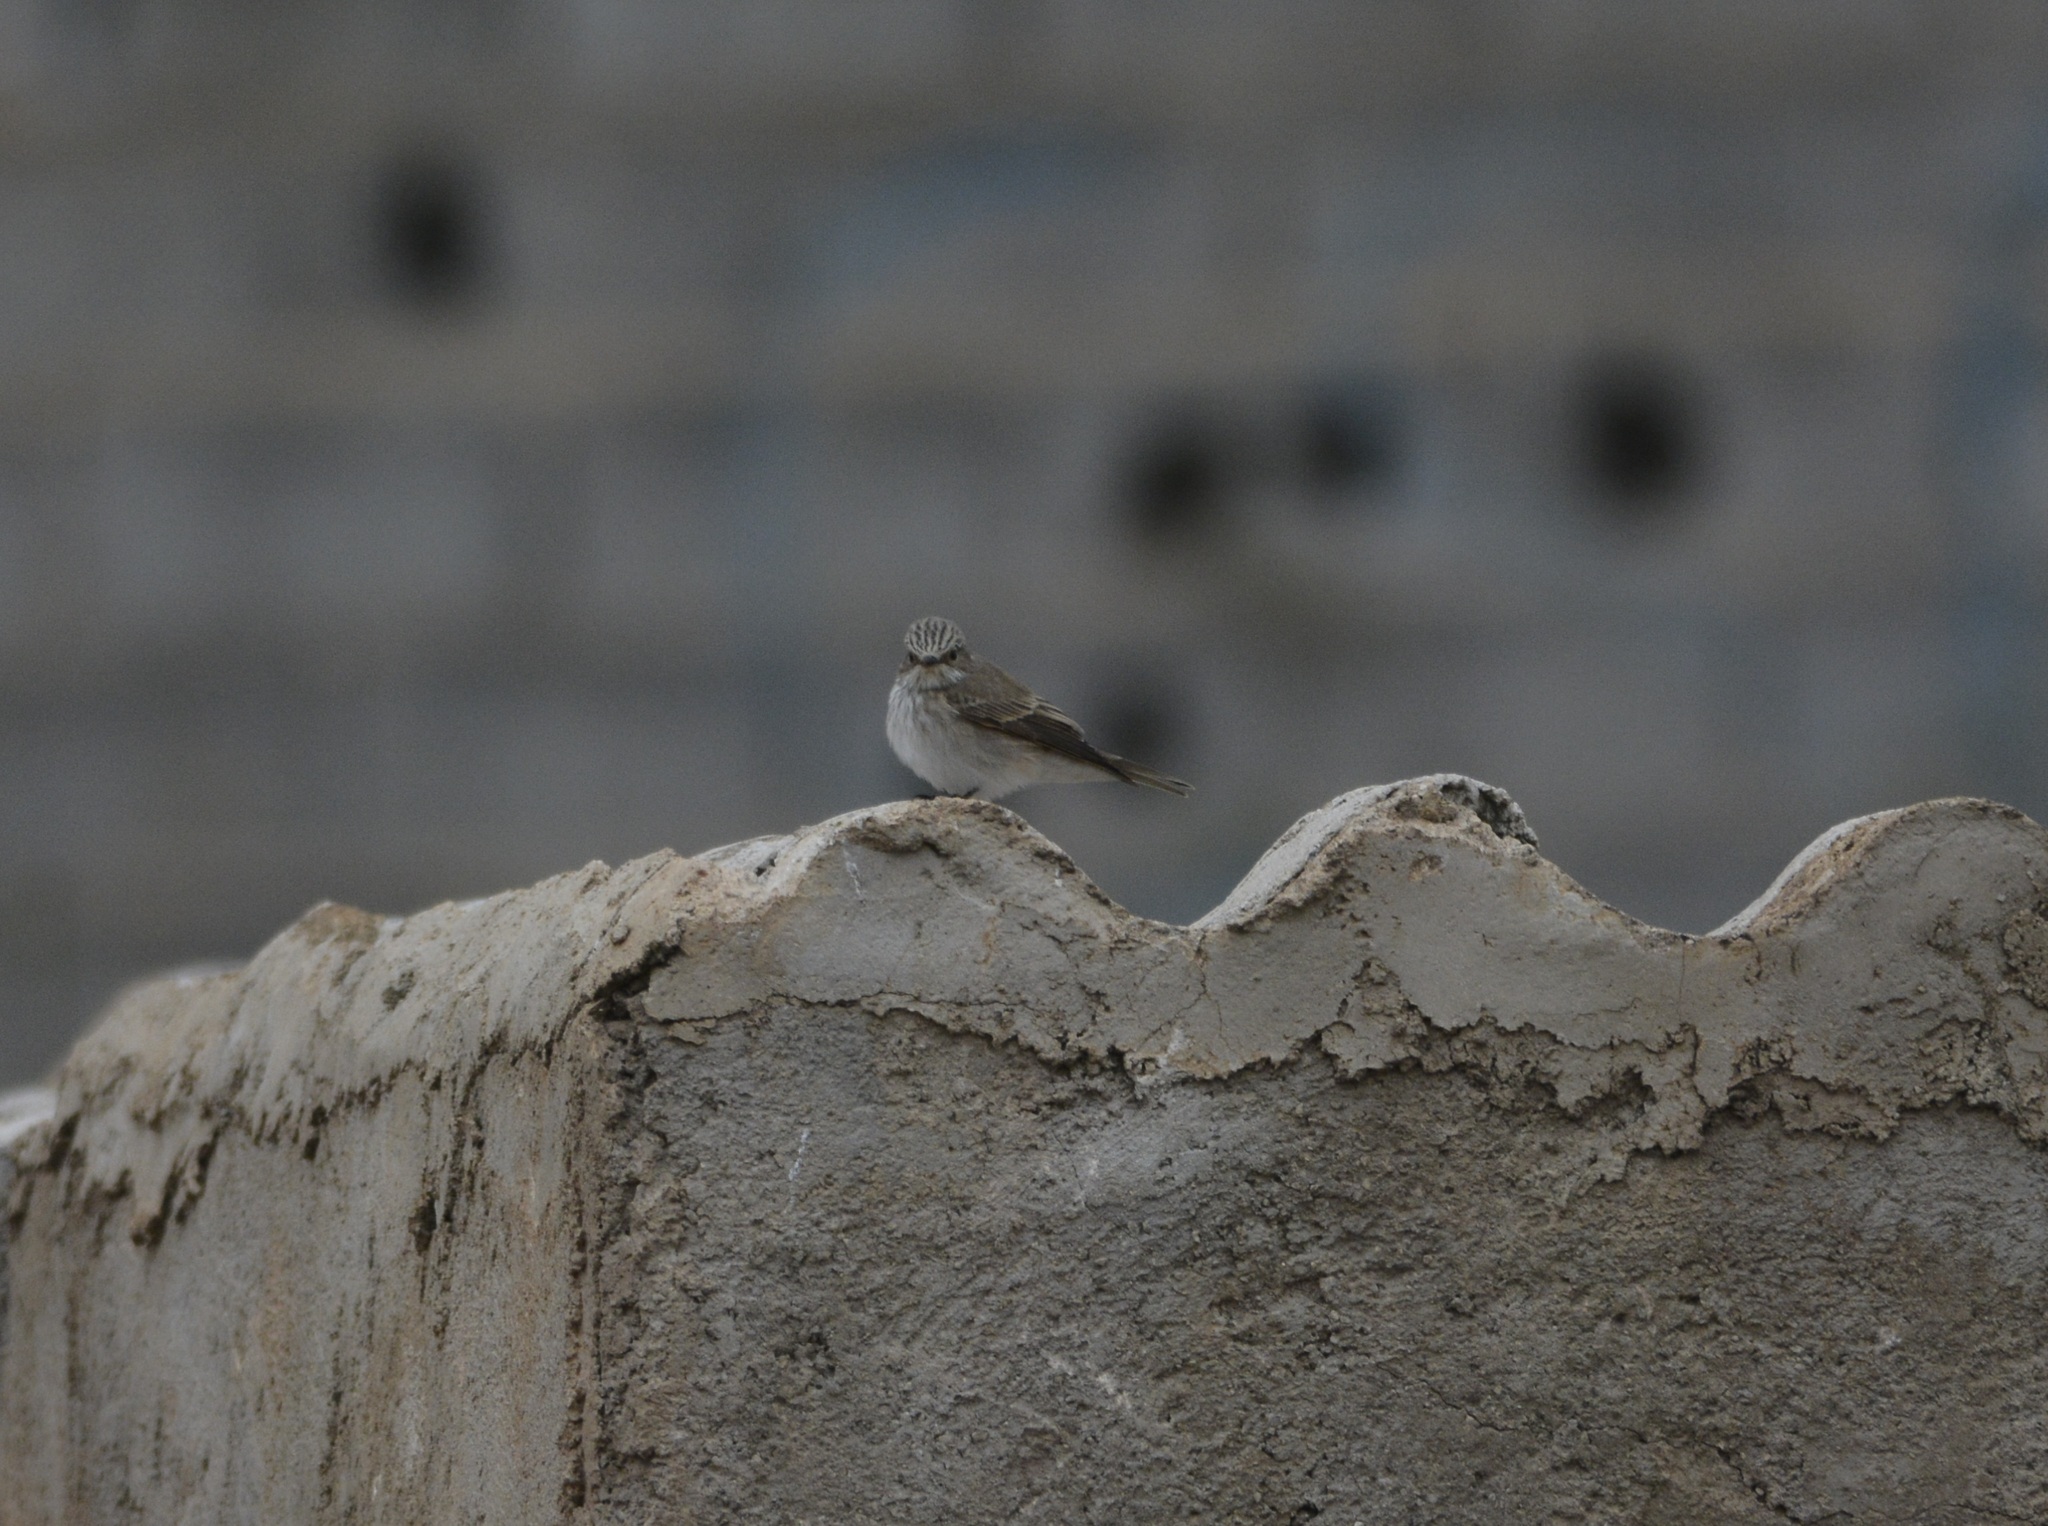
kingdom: Animalia
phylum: Chordata
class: Aves
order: Passeriformes
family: Muscicapidae
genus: Muscicapa
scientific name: Muscicapa striata
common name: Spotted flycatcher
